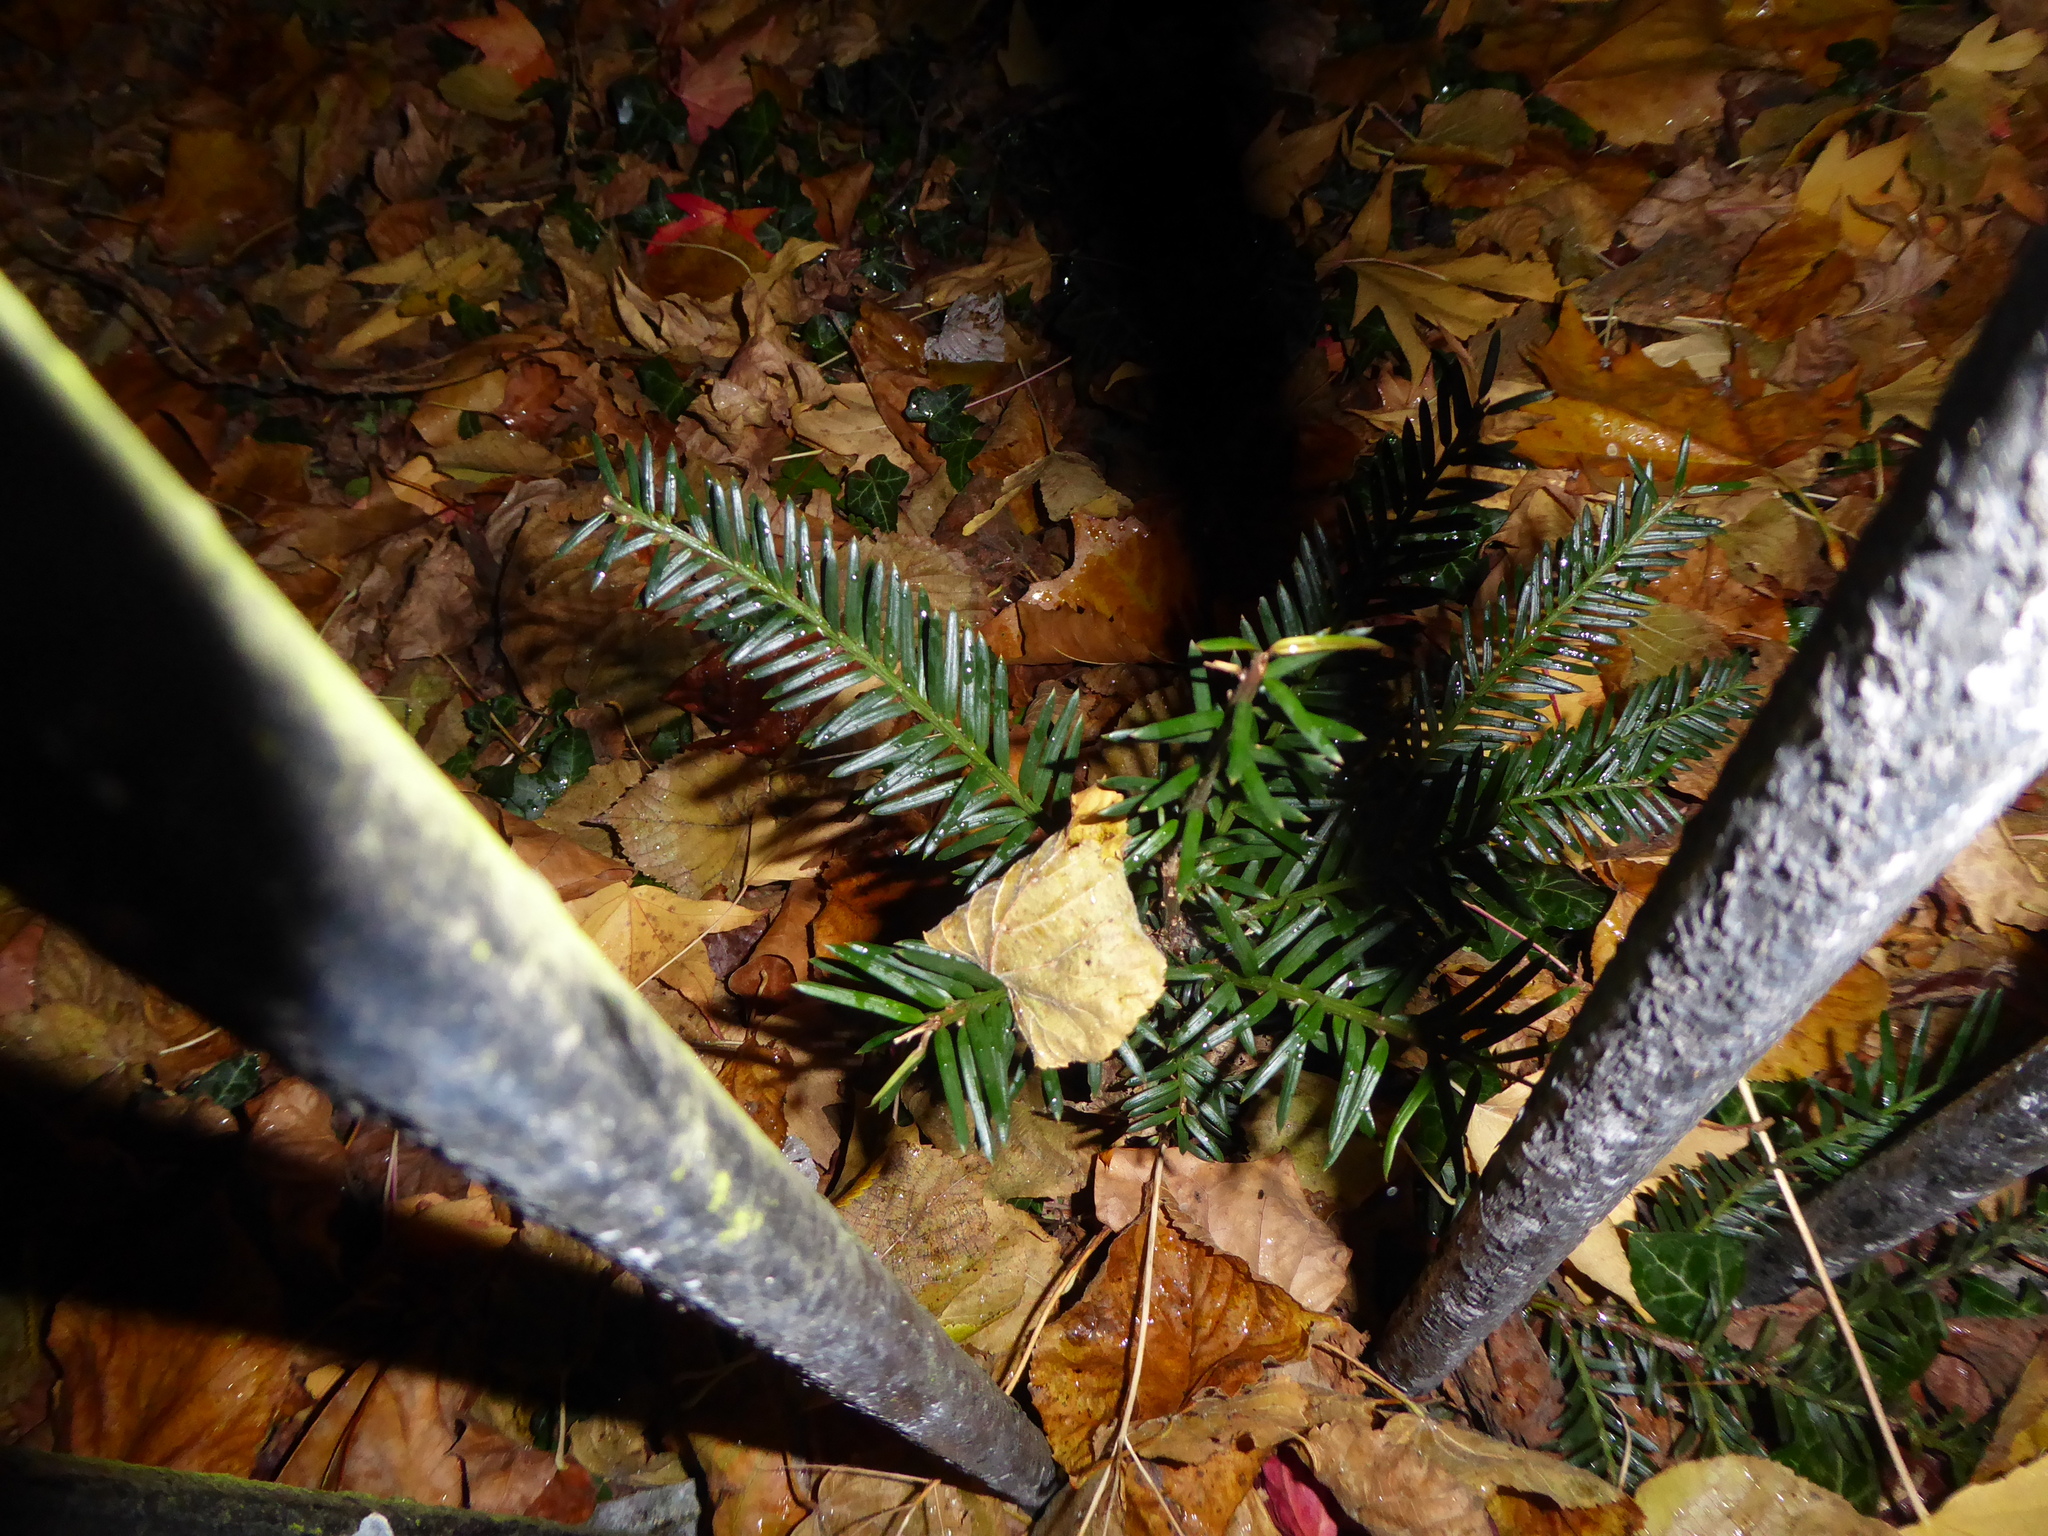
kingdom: Plantae
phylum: Tracheophyta
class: Pinopsida
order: Pinales
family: Taxaceae
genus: Taxus
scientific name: Taxus baccata
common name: Yew
